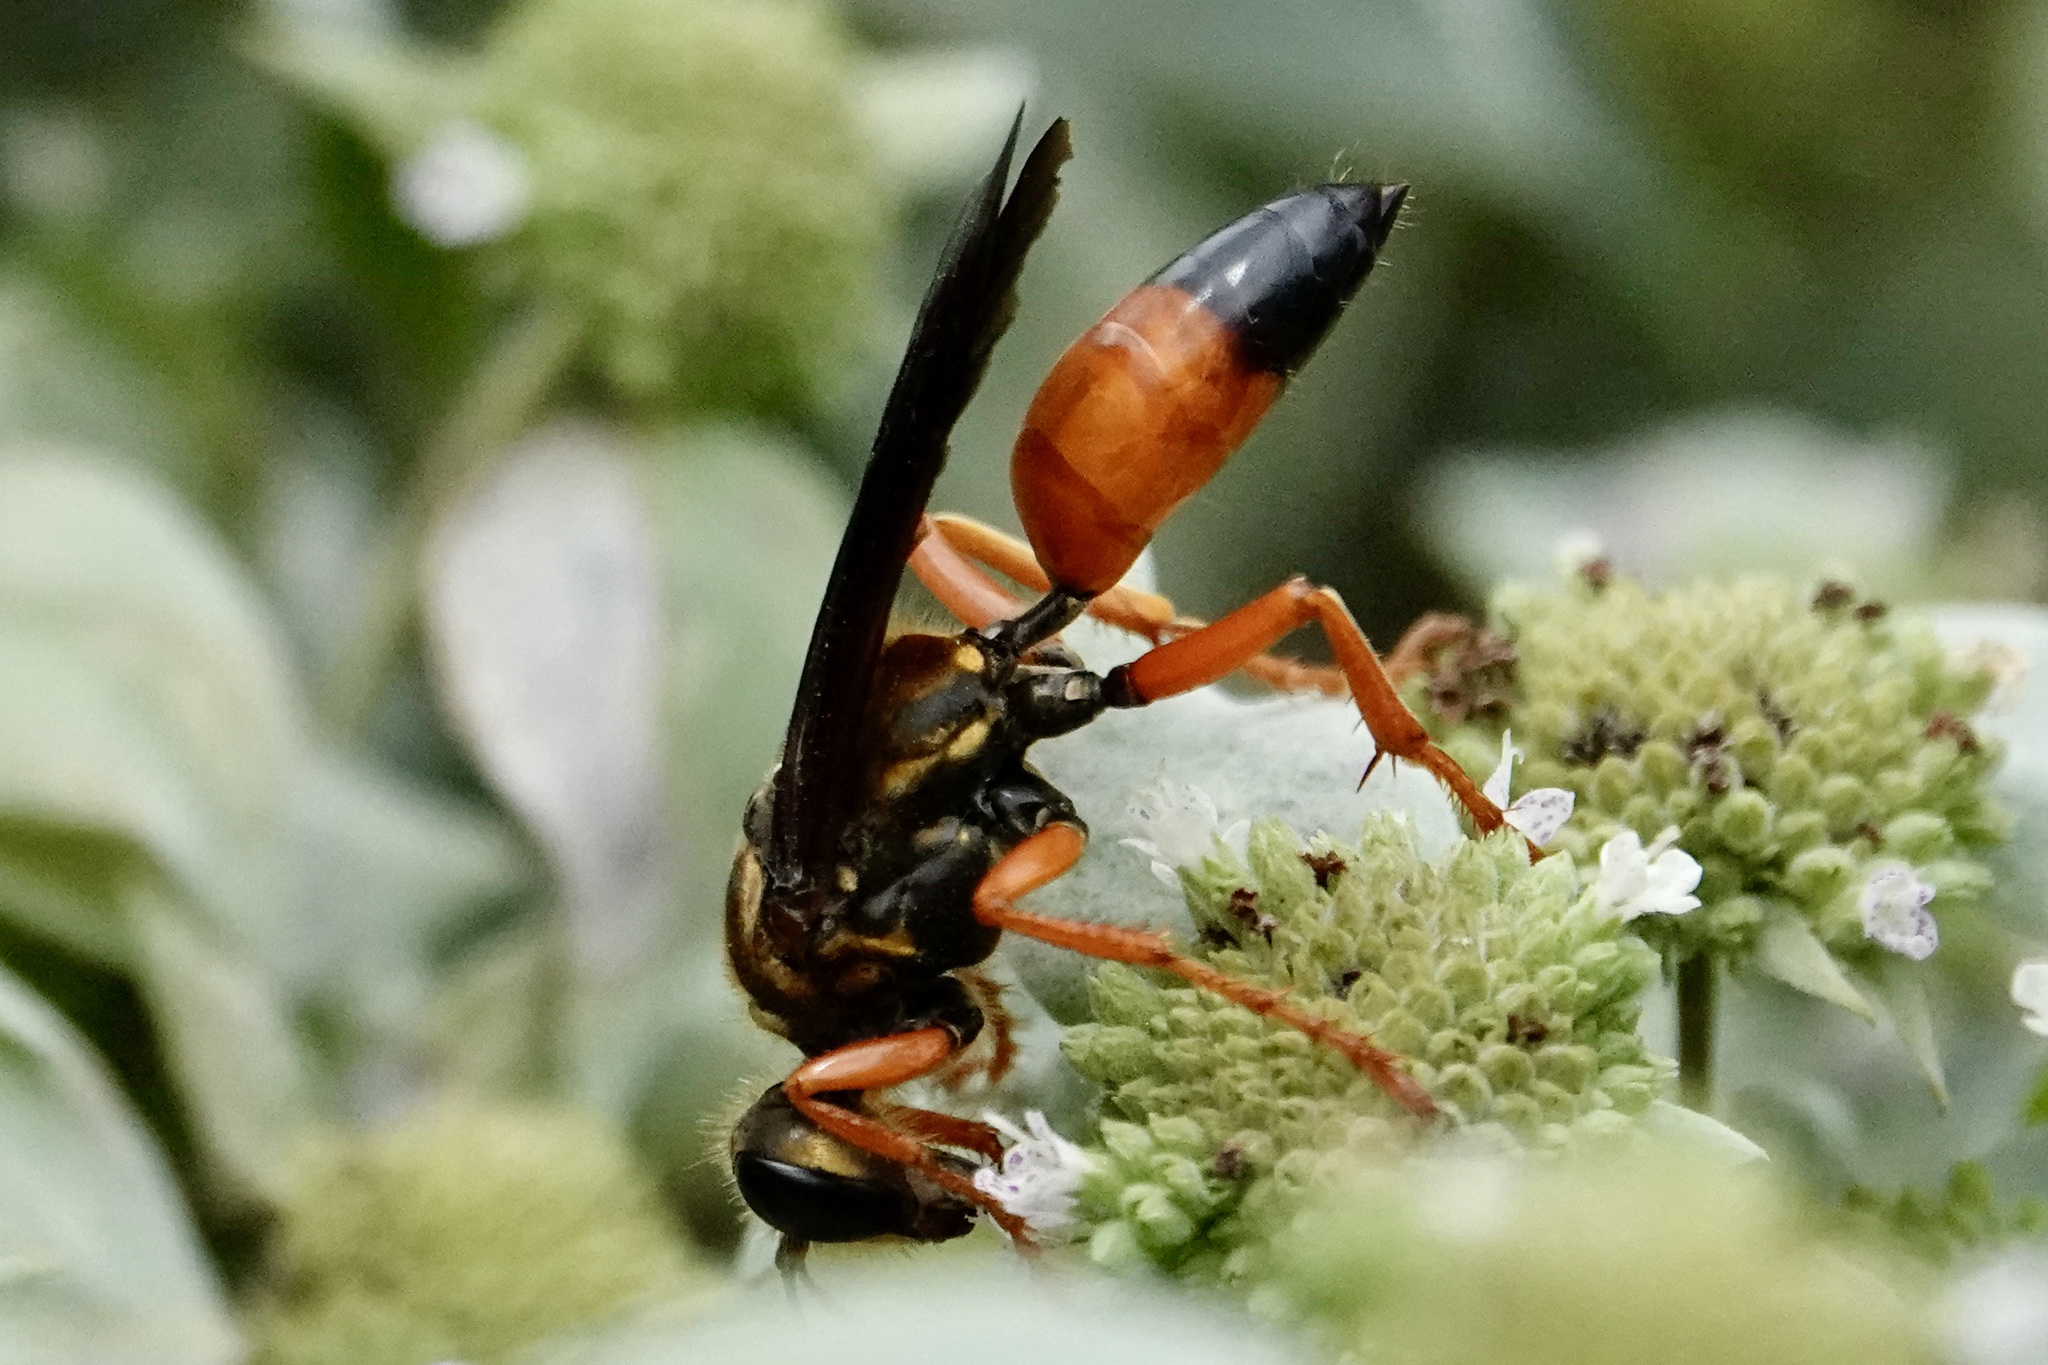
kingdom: Animalia
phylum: Arthropoda
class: Insecta
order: Hymenoptera
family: Sphecidae
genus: Sphex
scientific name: Sphex ichneumoneus
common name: Great golden digger wasp
